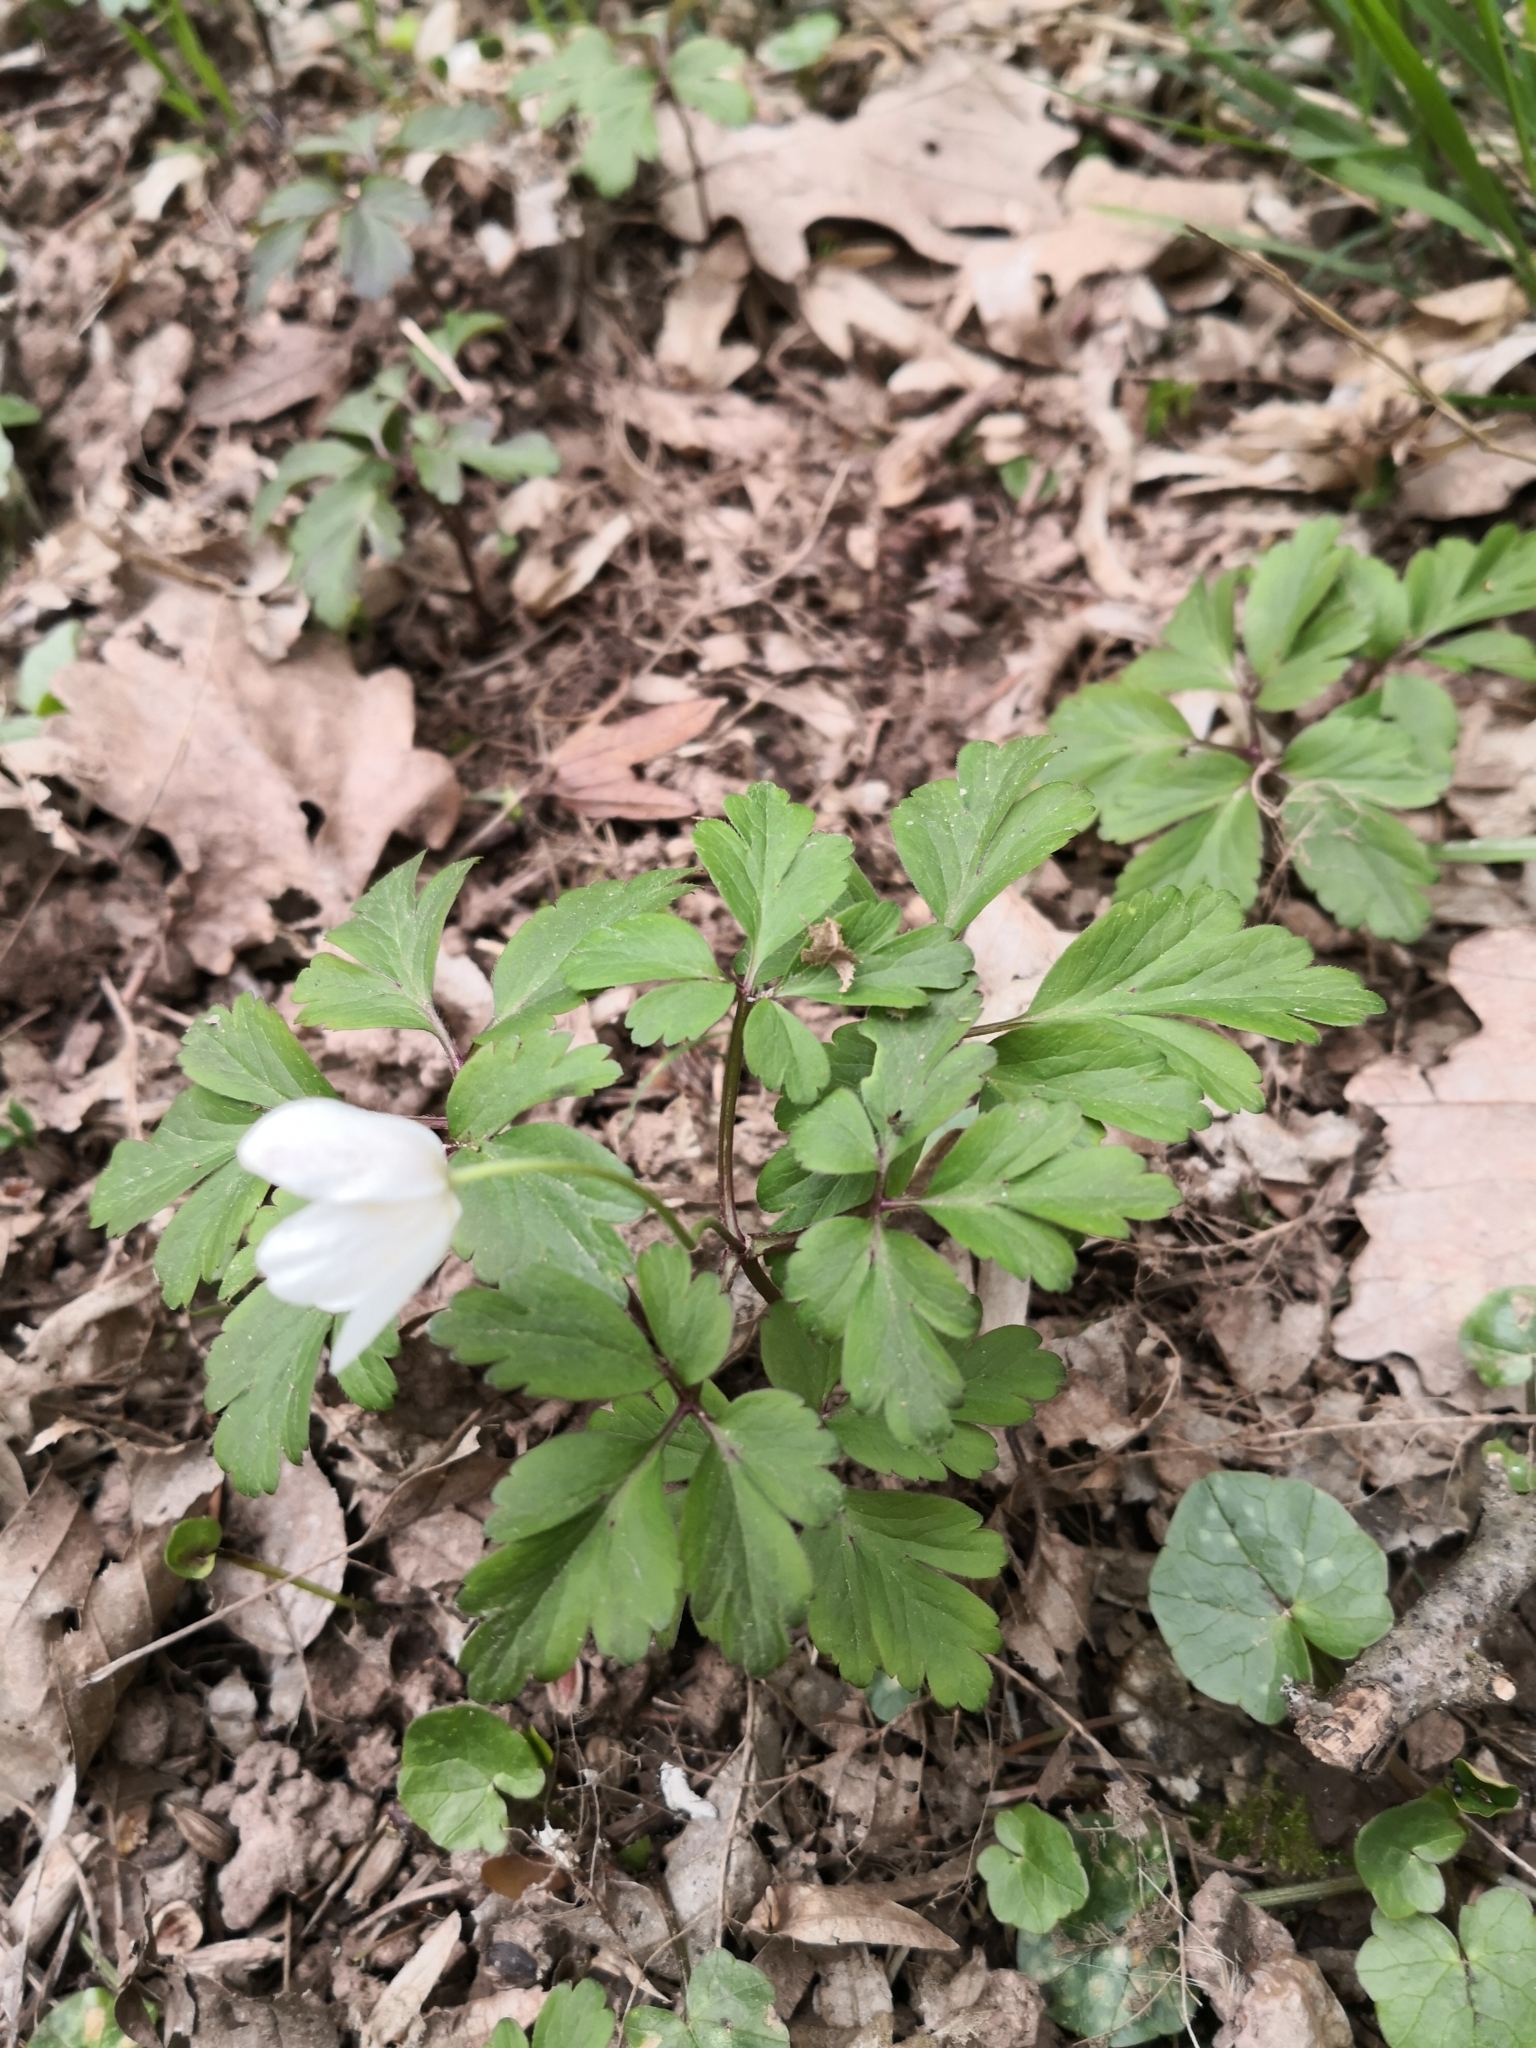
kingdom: Plantae
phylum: Tracheophyta
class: Magnoliopsida
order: Ranunculales
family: Ranunculaceae
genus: Anemone
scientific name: Anemone nemorosa
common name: Wood anemone
